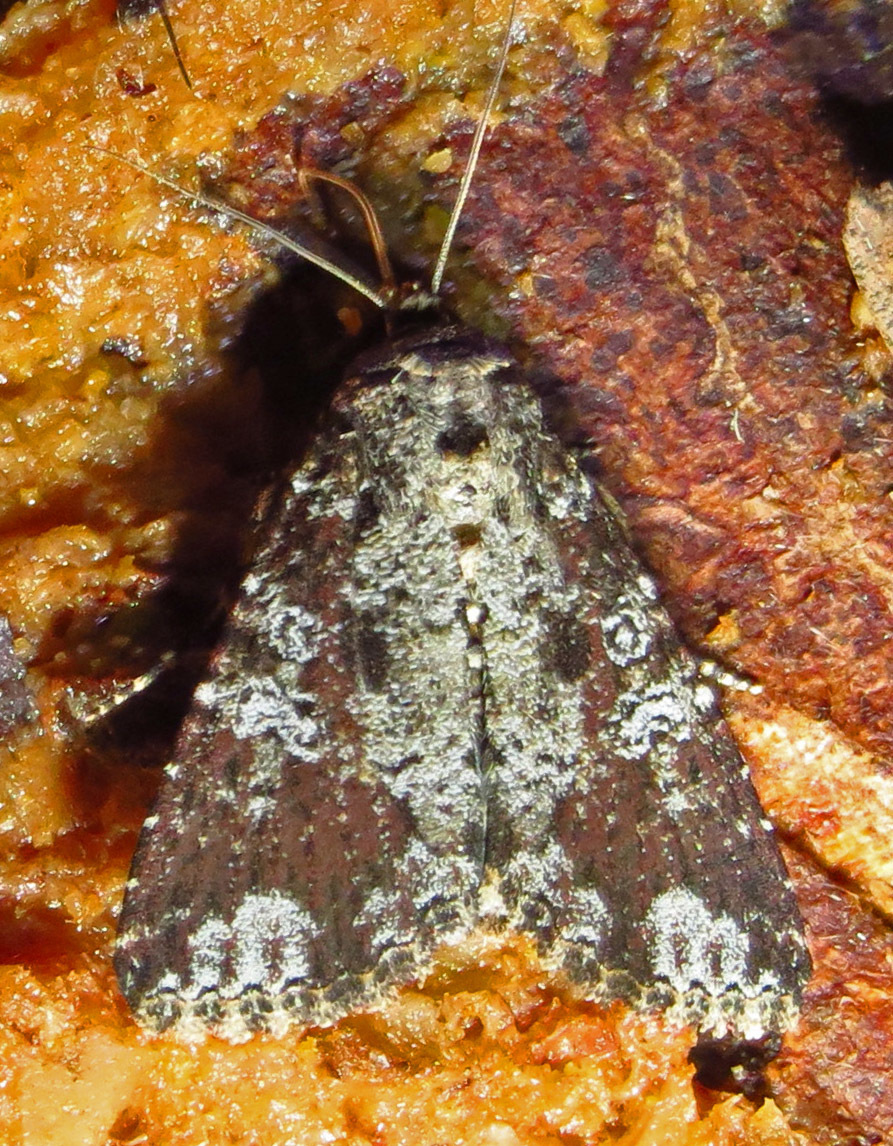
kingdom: Animalia
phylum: Arthropoda
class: Insecta
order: Lepidoptera
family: Noctuidae
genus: Condica
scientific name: Condica confederata
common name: The confederate
